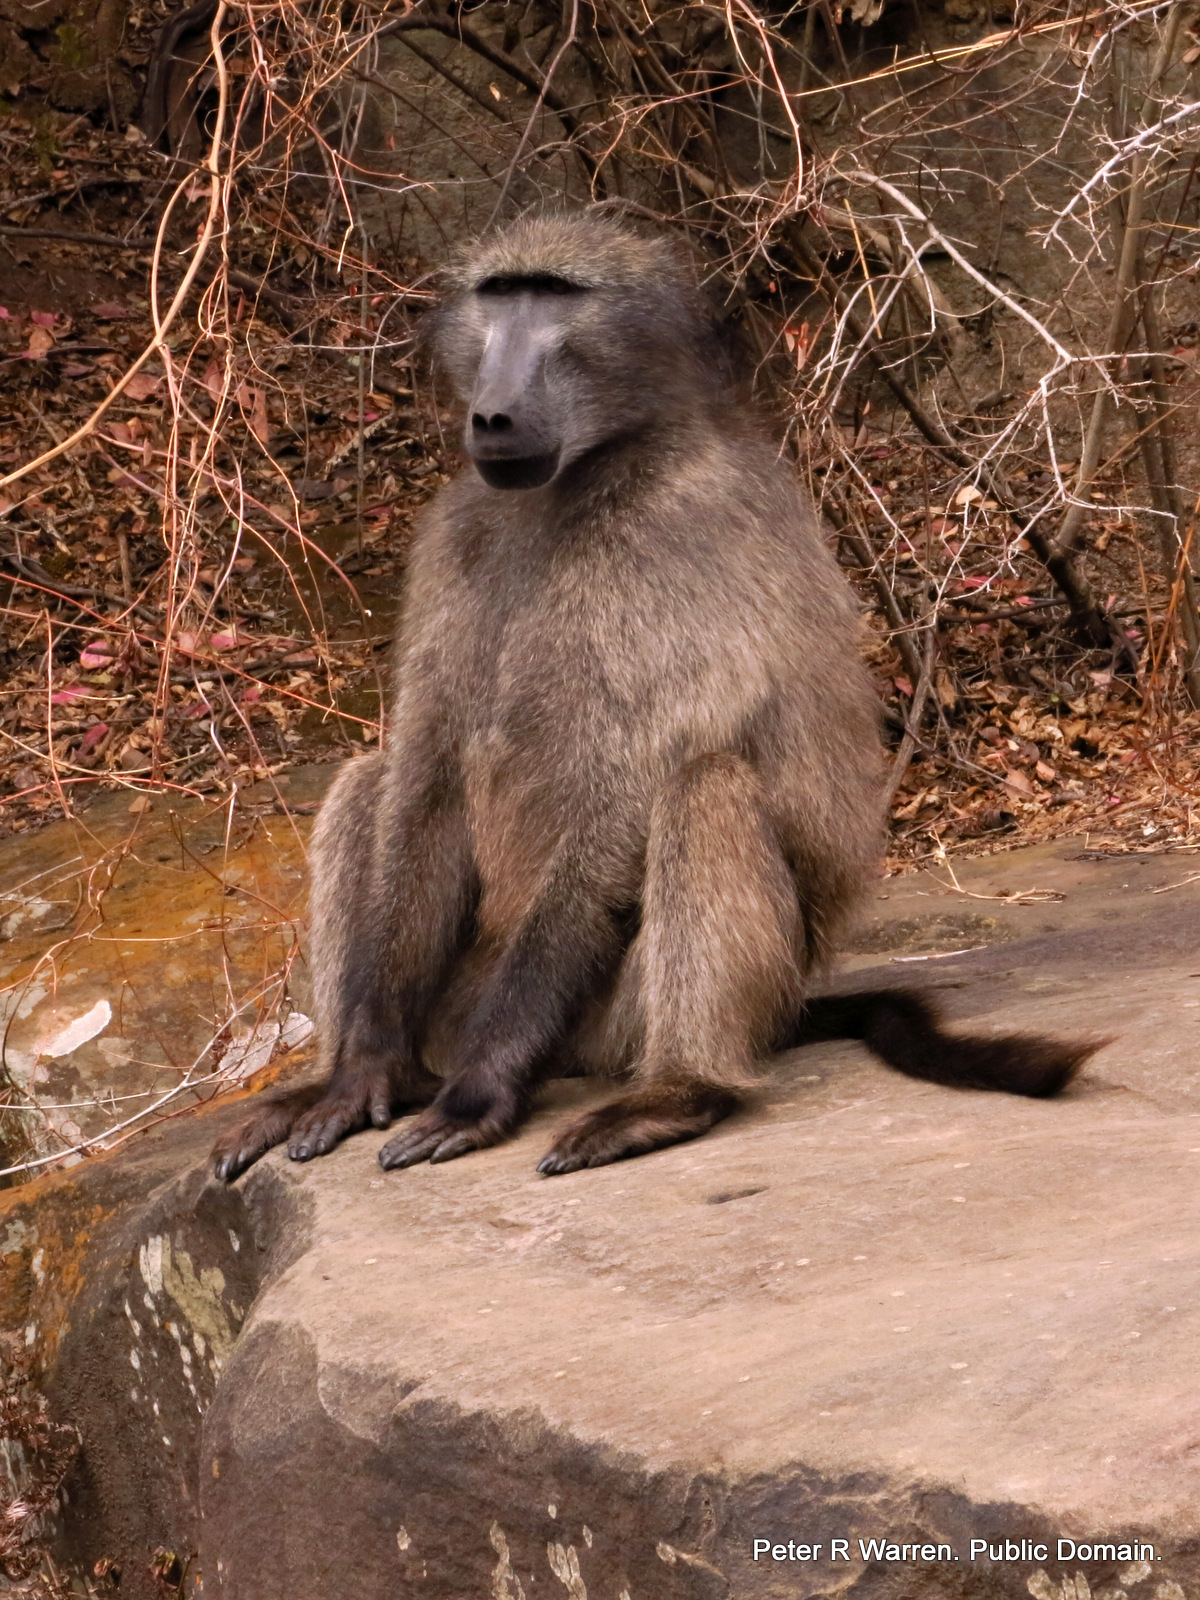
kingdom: Animalia
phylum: Chordata
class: Mammalia
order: Primates
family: Cercopithecidae
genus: Papio
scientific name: Papio ursinus
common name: Chacma baboon
